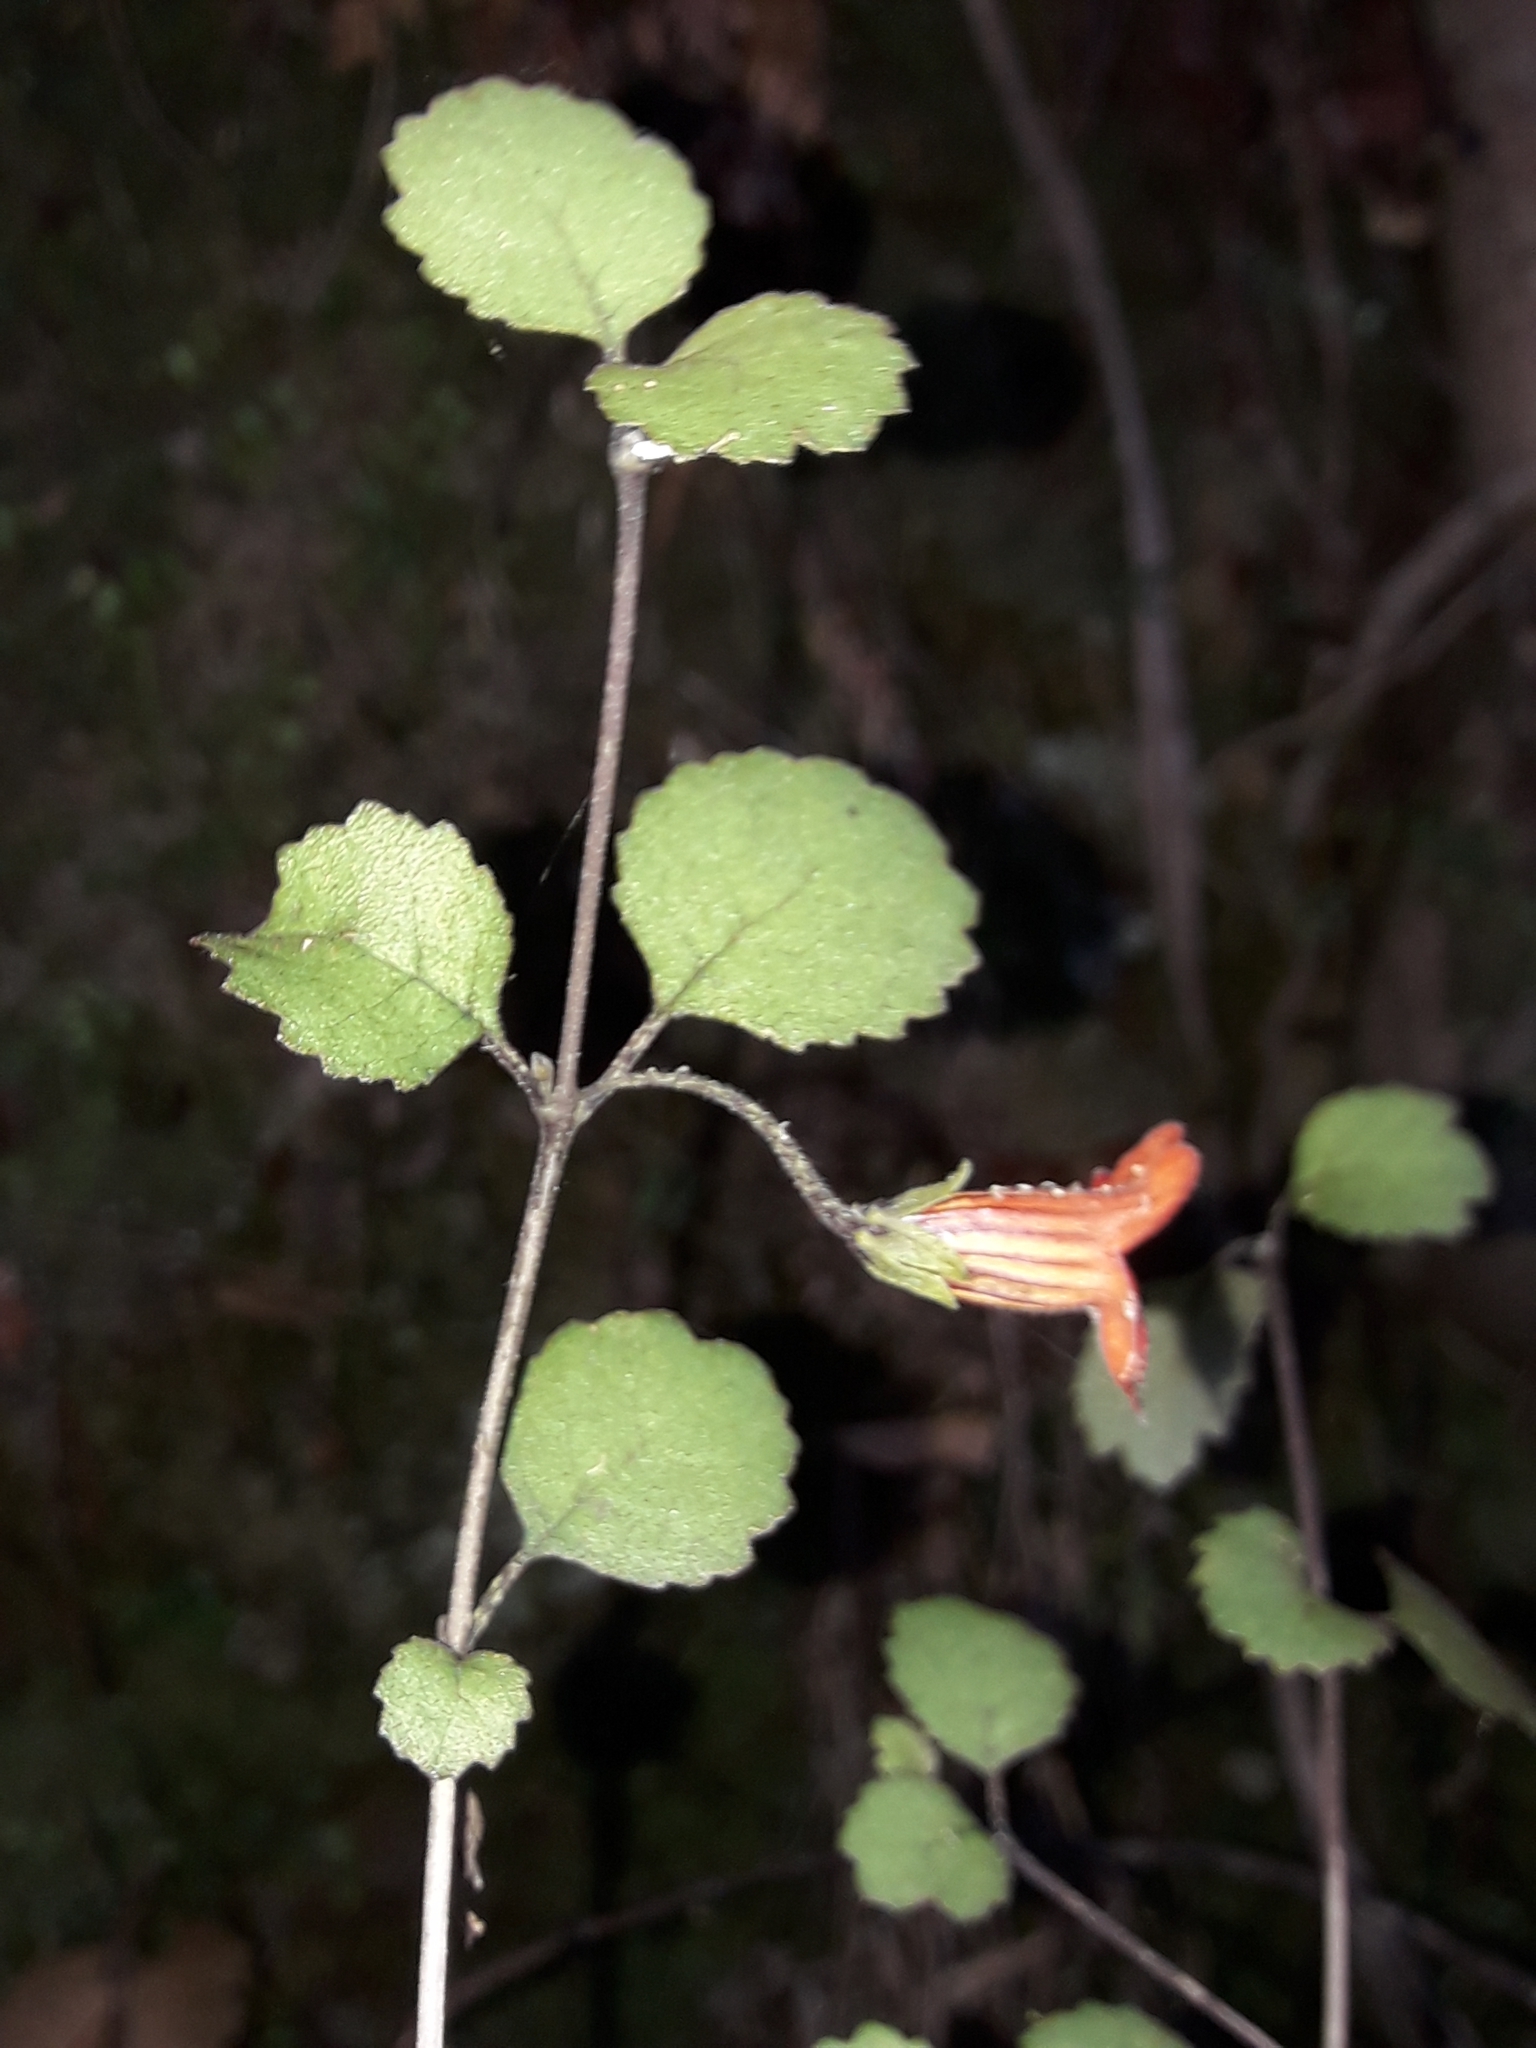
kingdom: Plantae
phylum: Tracheophyta
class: Magnoliopsida
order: Lamiales
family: Gesneriaceae
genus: Rhabdothamnus
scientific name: Rhabdothamnus solandri
